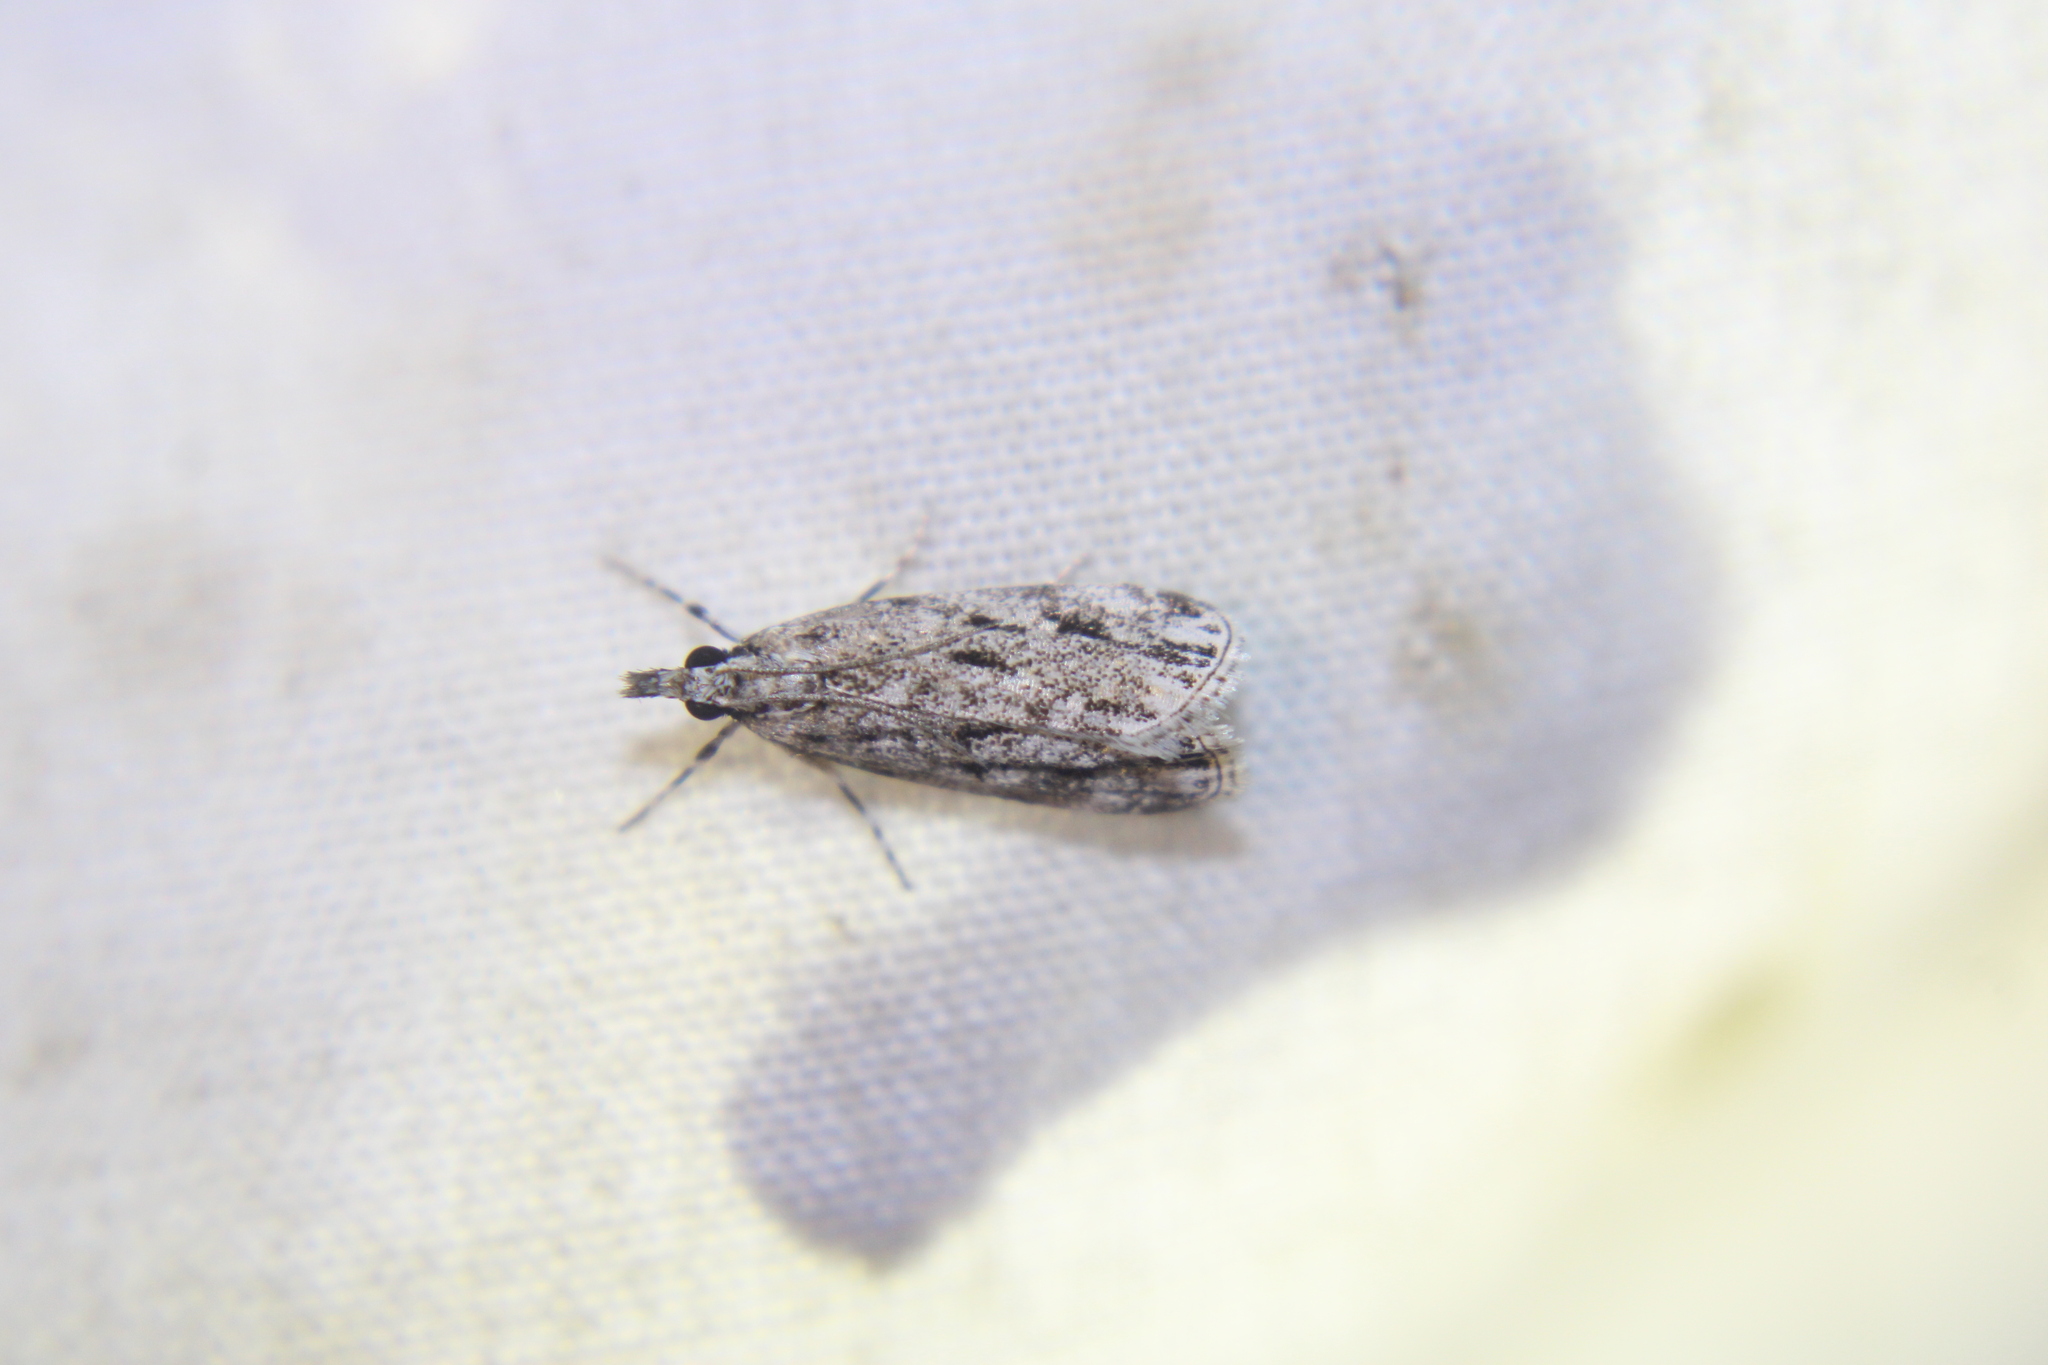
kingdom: Animalia
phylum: Arthropoda
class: Insecta
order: Lepidoptera
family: Crambidae
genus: Eudonia
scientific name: Eudonia strigalis
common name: Striped eudonia moth
